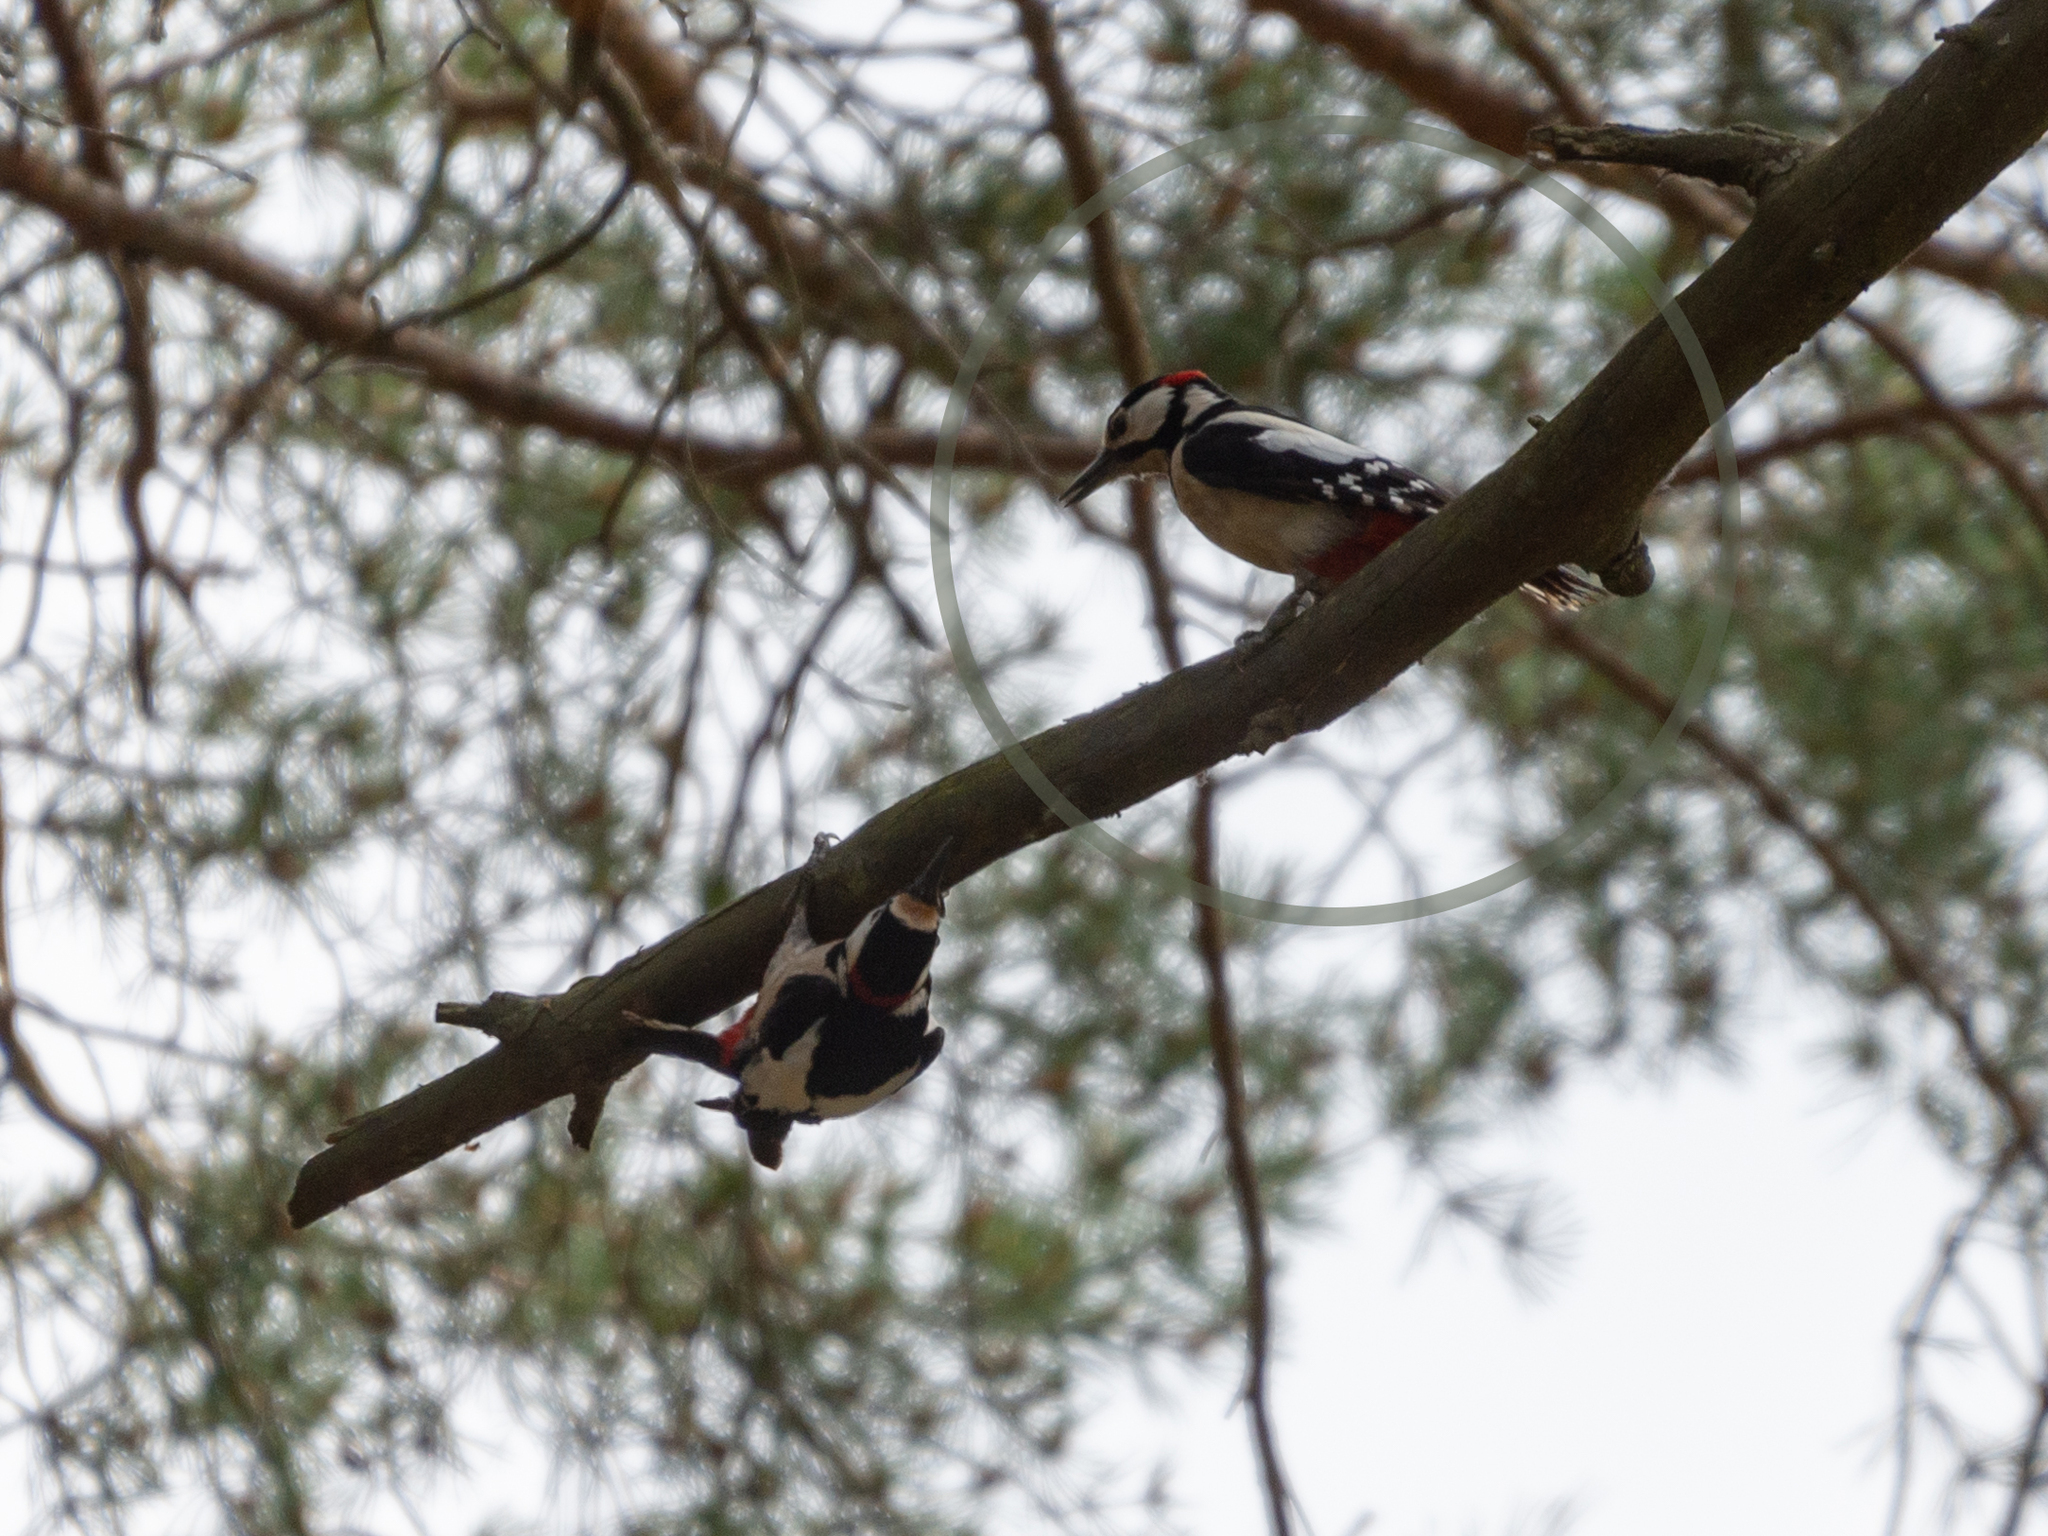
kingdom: Animalia
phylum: Chordata
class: Aves
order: Piciformes
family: Picidae
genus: Dendrocopos
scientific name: Dendrocopos major
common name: Great spotted woodpecker
